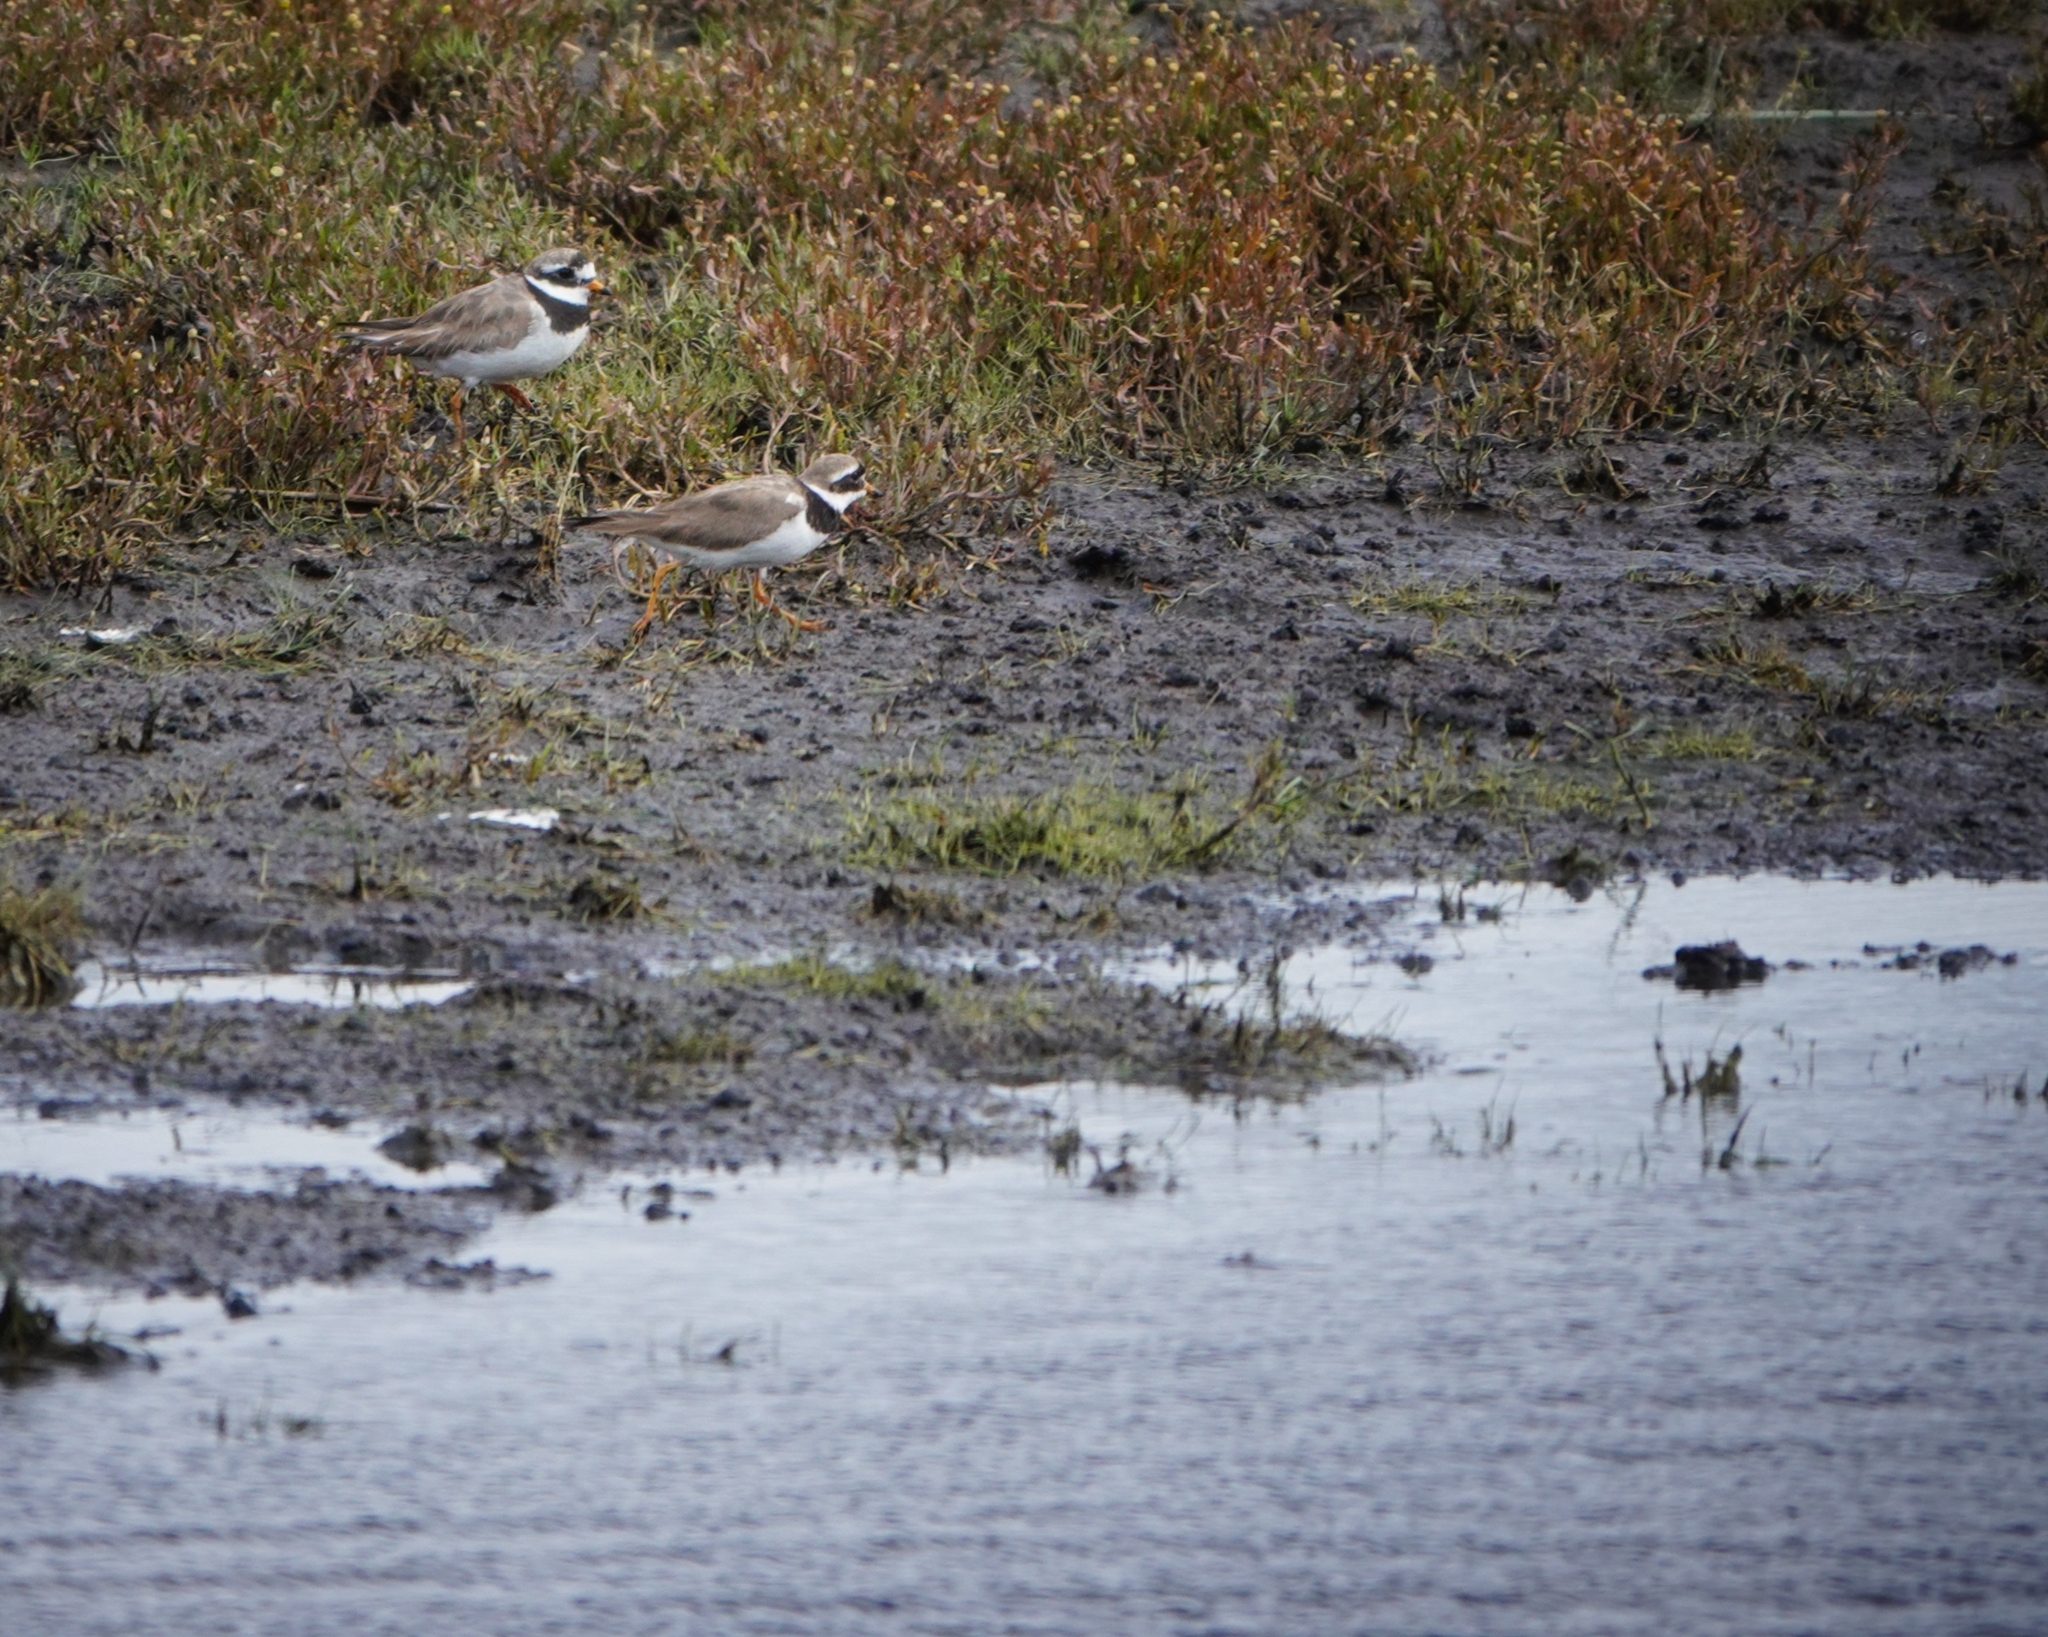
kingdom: Animalia
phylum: Chordata
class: Aves
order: Charadriiformes
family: Charadriidae
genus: Charadrius
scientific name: Charadrius hiaticula
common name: Common ringed plover
